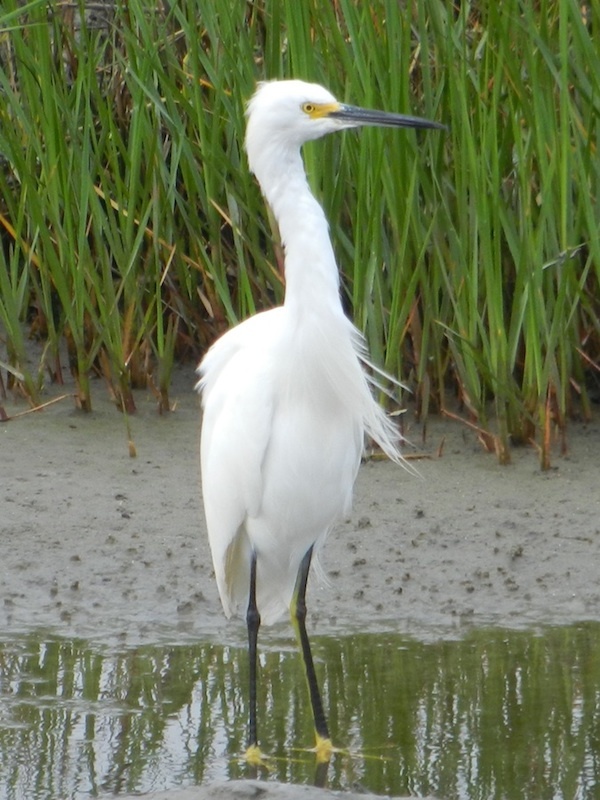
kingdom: Animalia
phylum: Chordata
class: Aves
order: Pelecaniformes
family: Ardeidae
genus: Egretta
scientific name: Egretta thula
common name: Snowy egret
